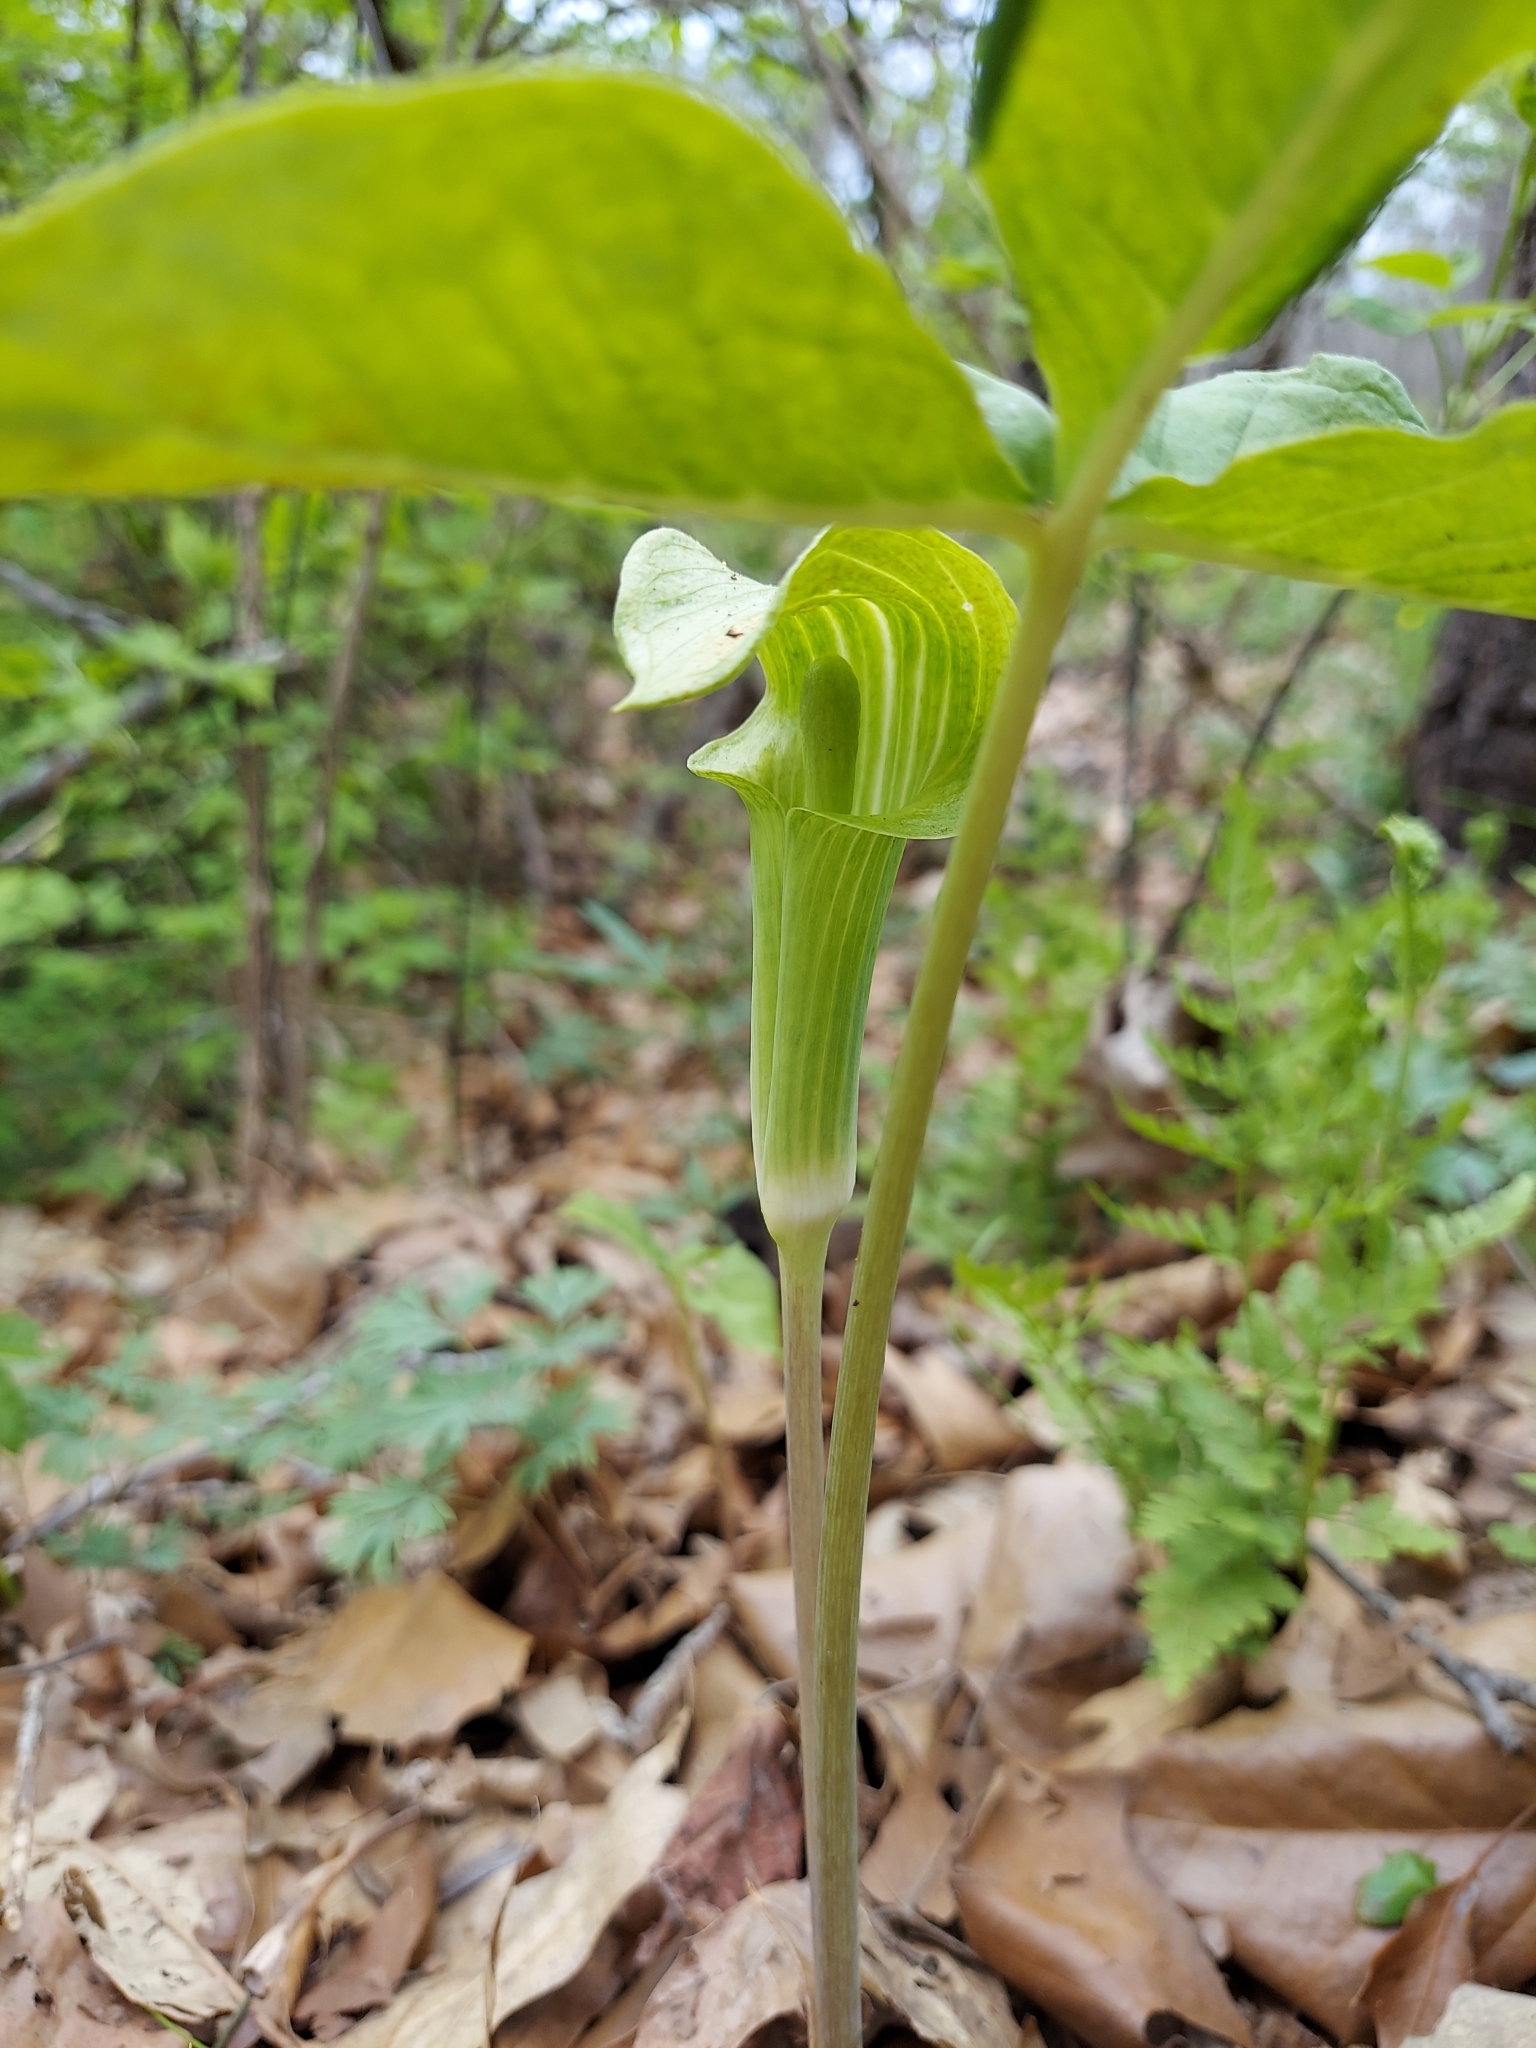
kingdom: Plantae
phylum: Tracheophyta
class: Liliopsida
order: Alismatales
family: Araceae
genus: Arisaema
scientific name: Arisaema triphyllum
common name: Jack-in-the-pulpit
